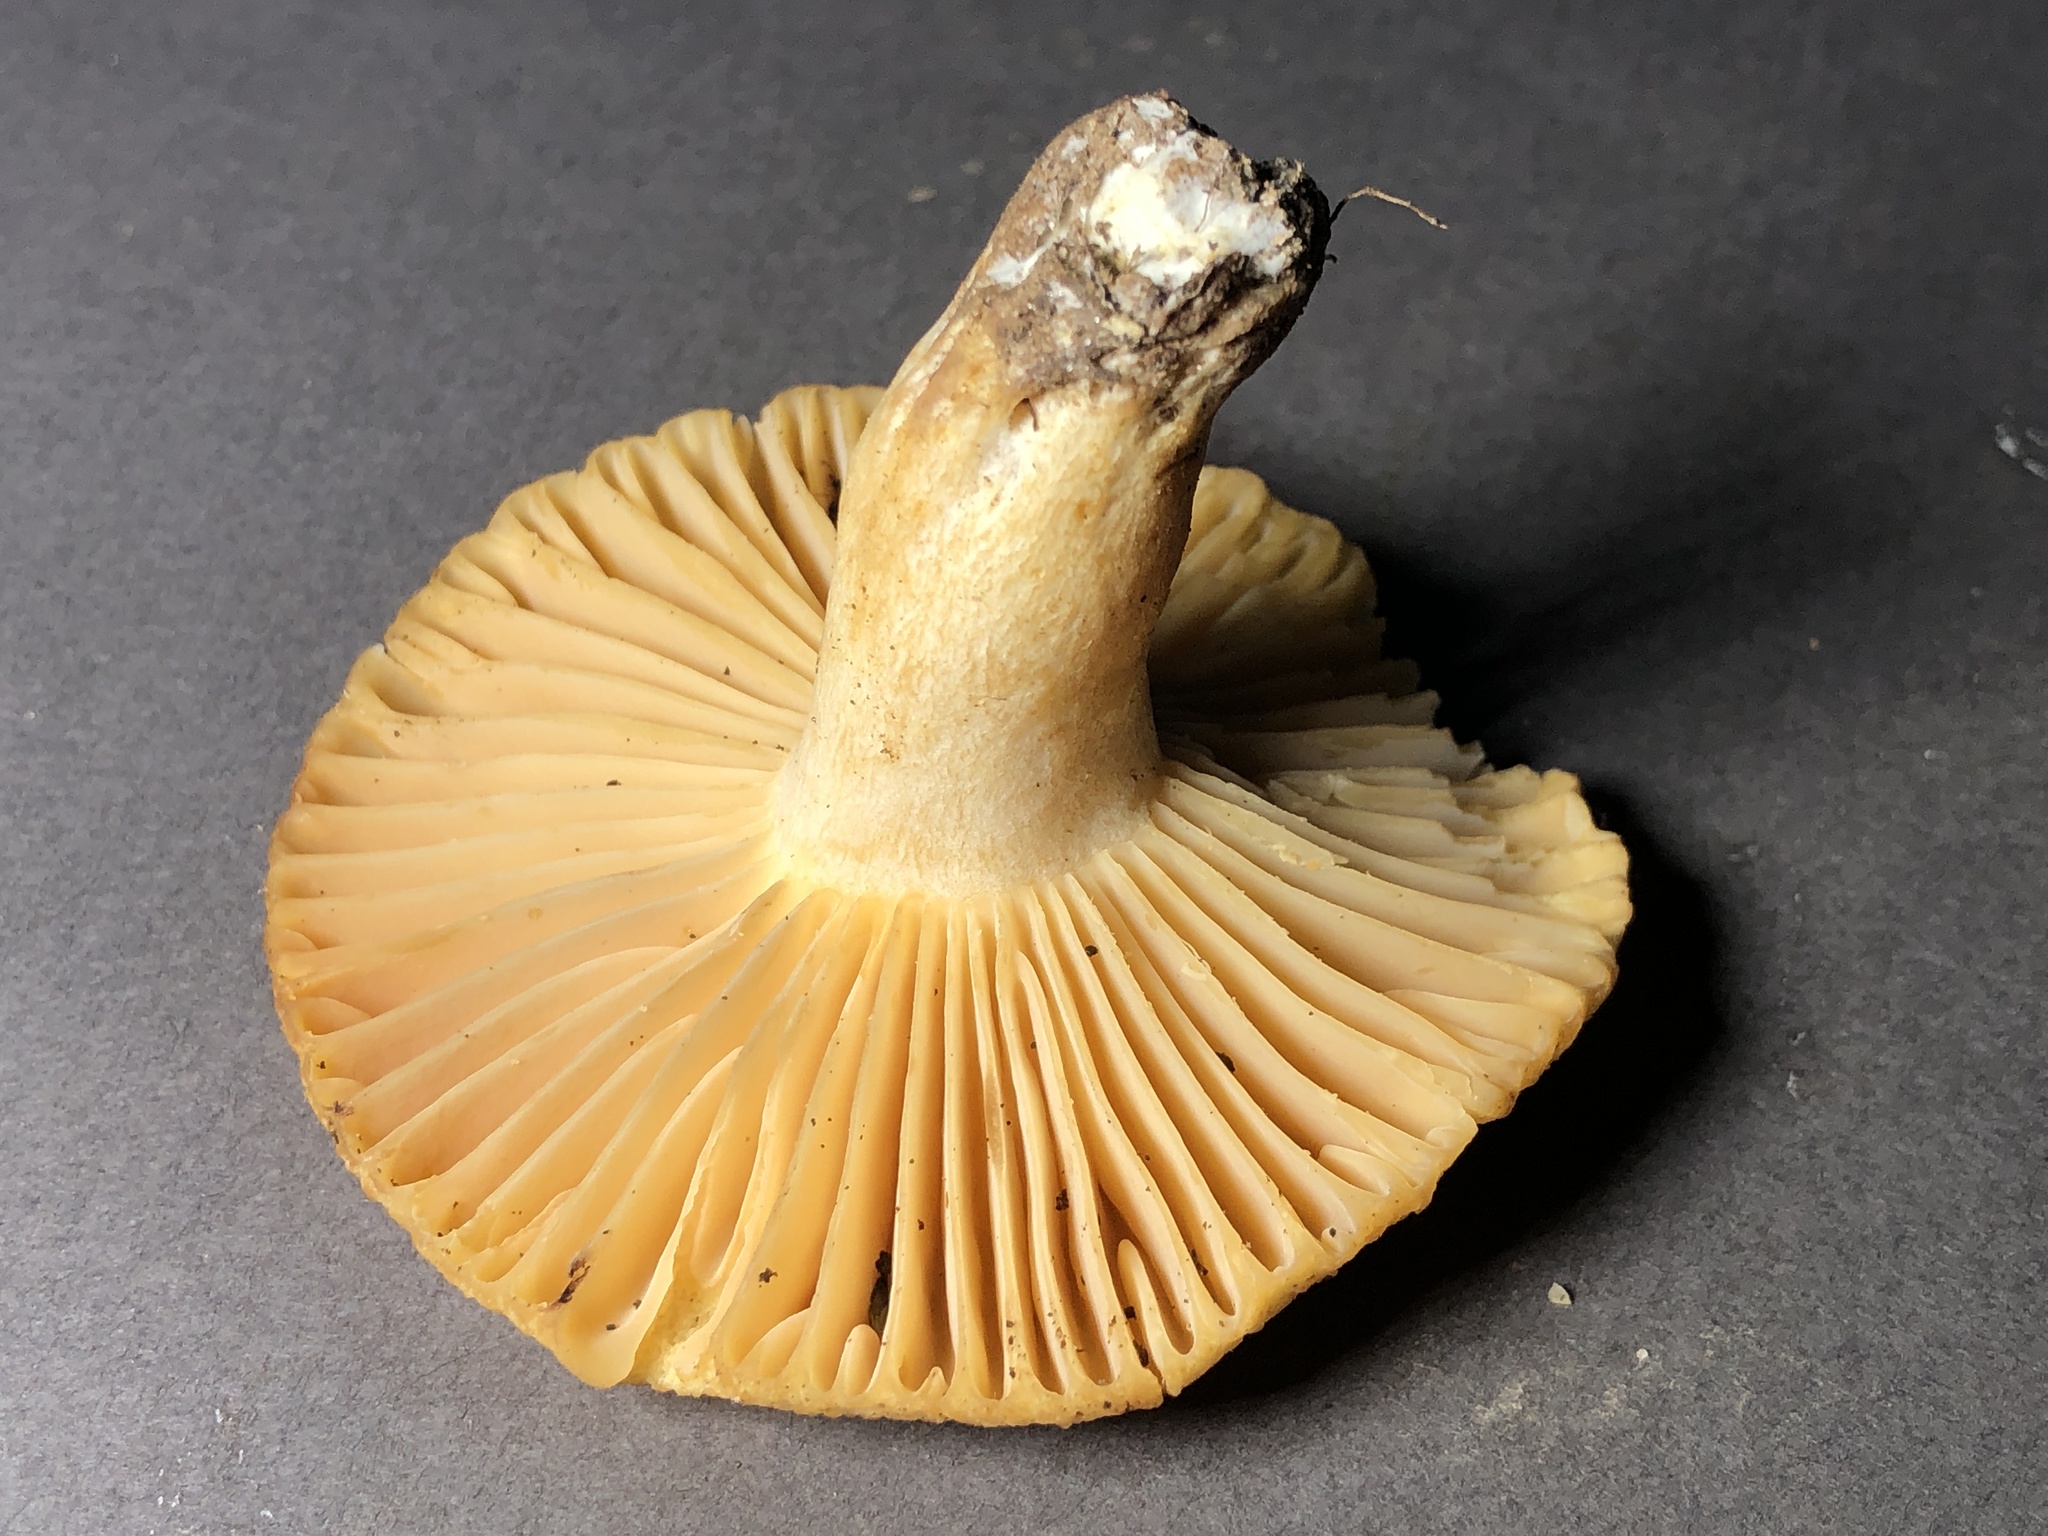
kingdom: Fungi
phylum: Basidiomycota
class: Agaricomycetes
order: Russulales
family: Russulaceae
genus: Russula
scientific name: Russula earlei
